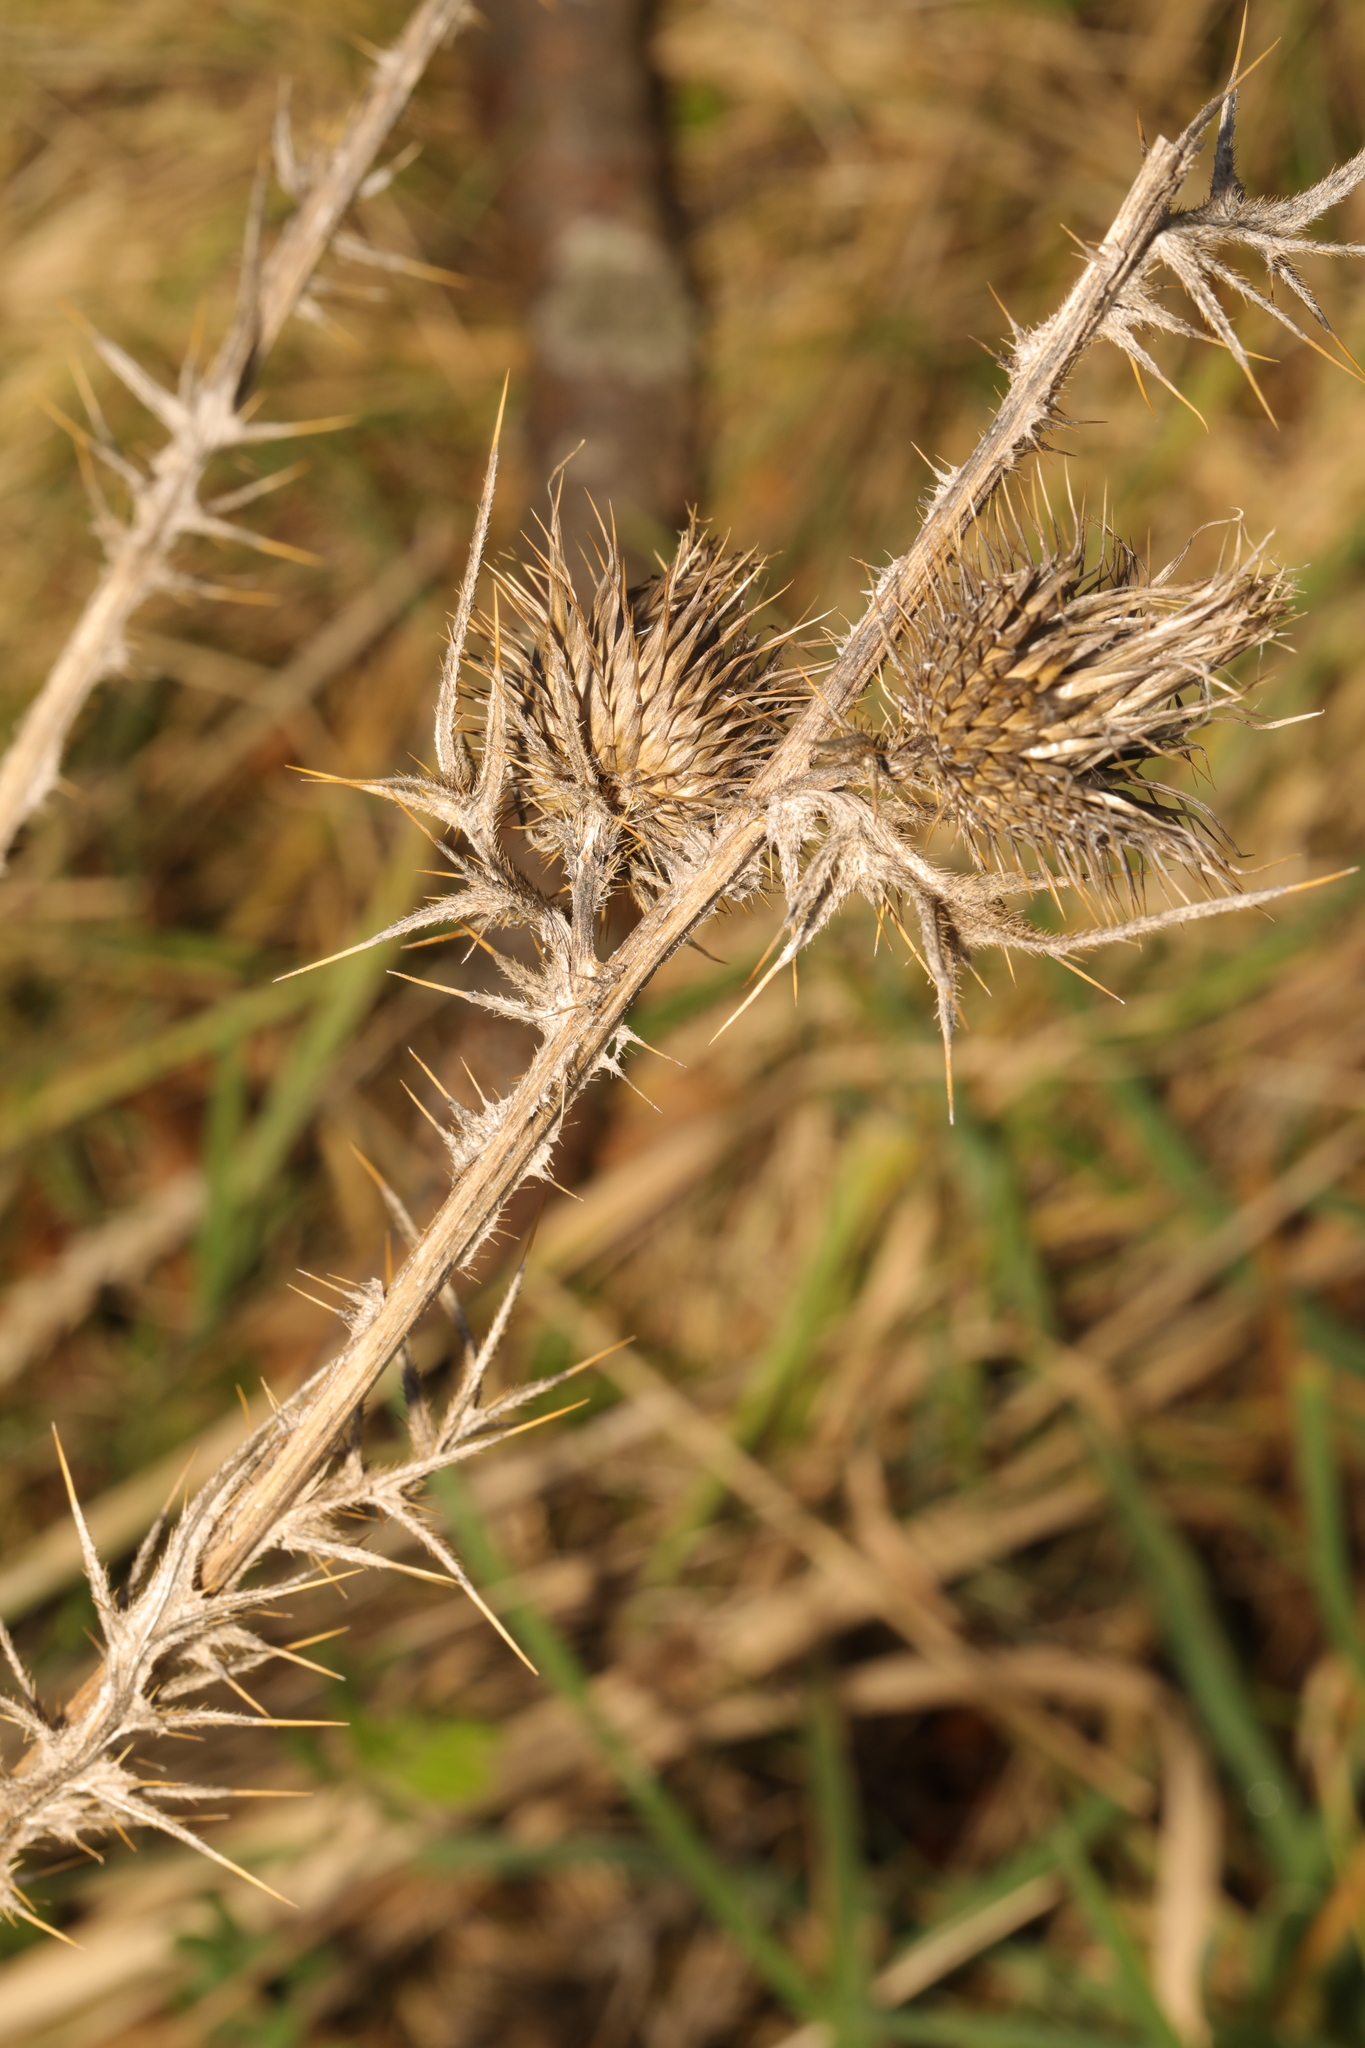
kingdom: Plantae
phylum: Tracheophyta
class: Magnoliopsida
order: Asterales
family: Asteraceae
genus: Cirsium
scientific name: Cirsium vulgare
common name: Bull thistle
